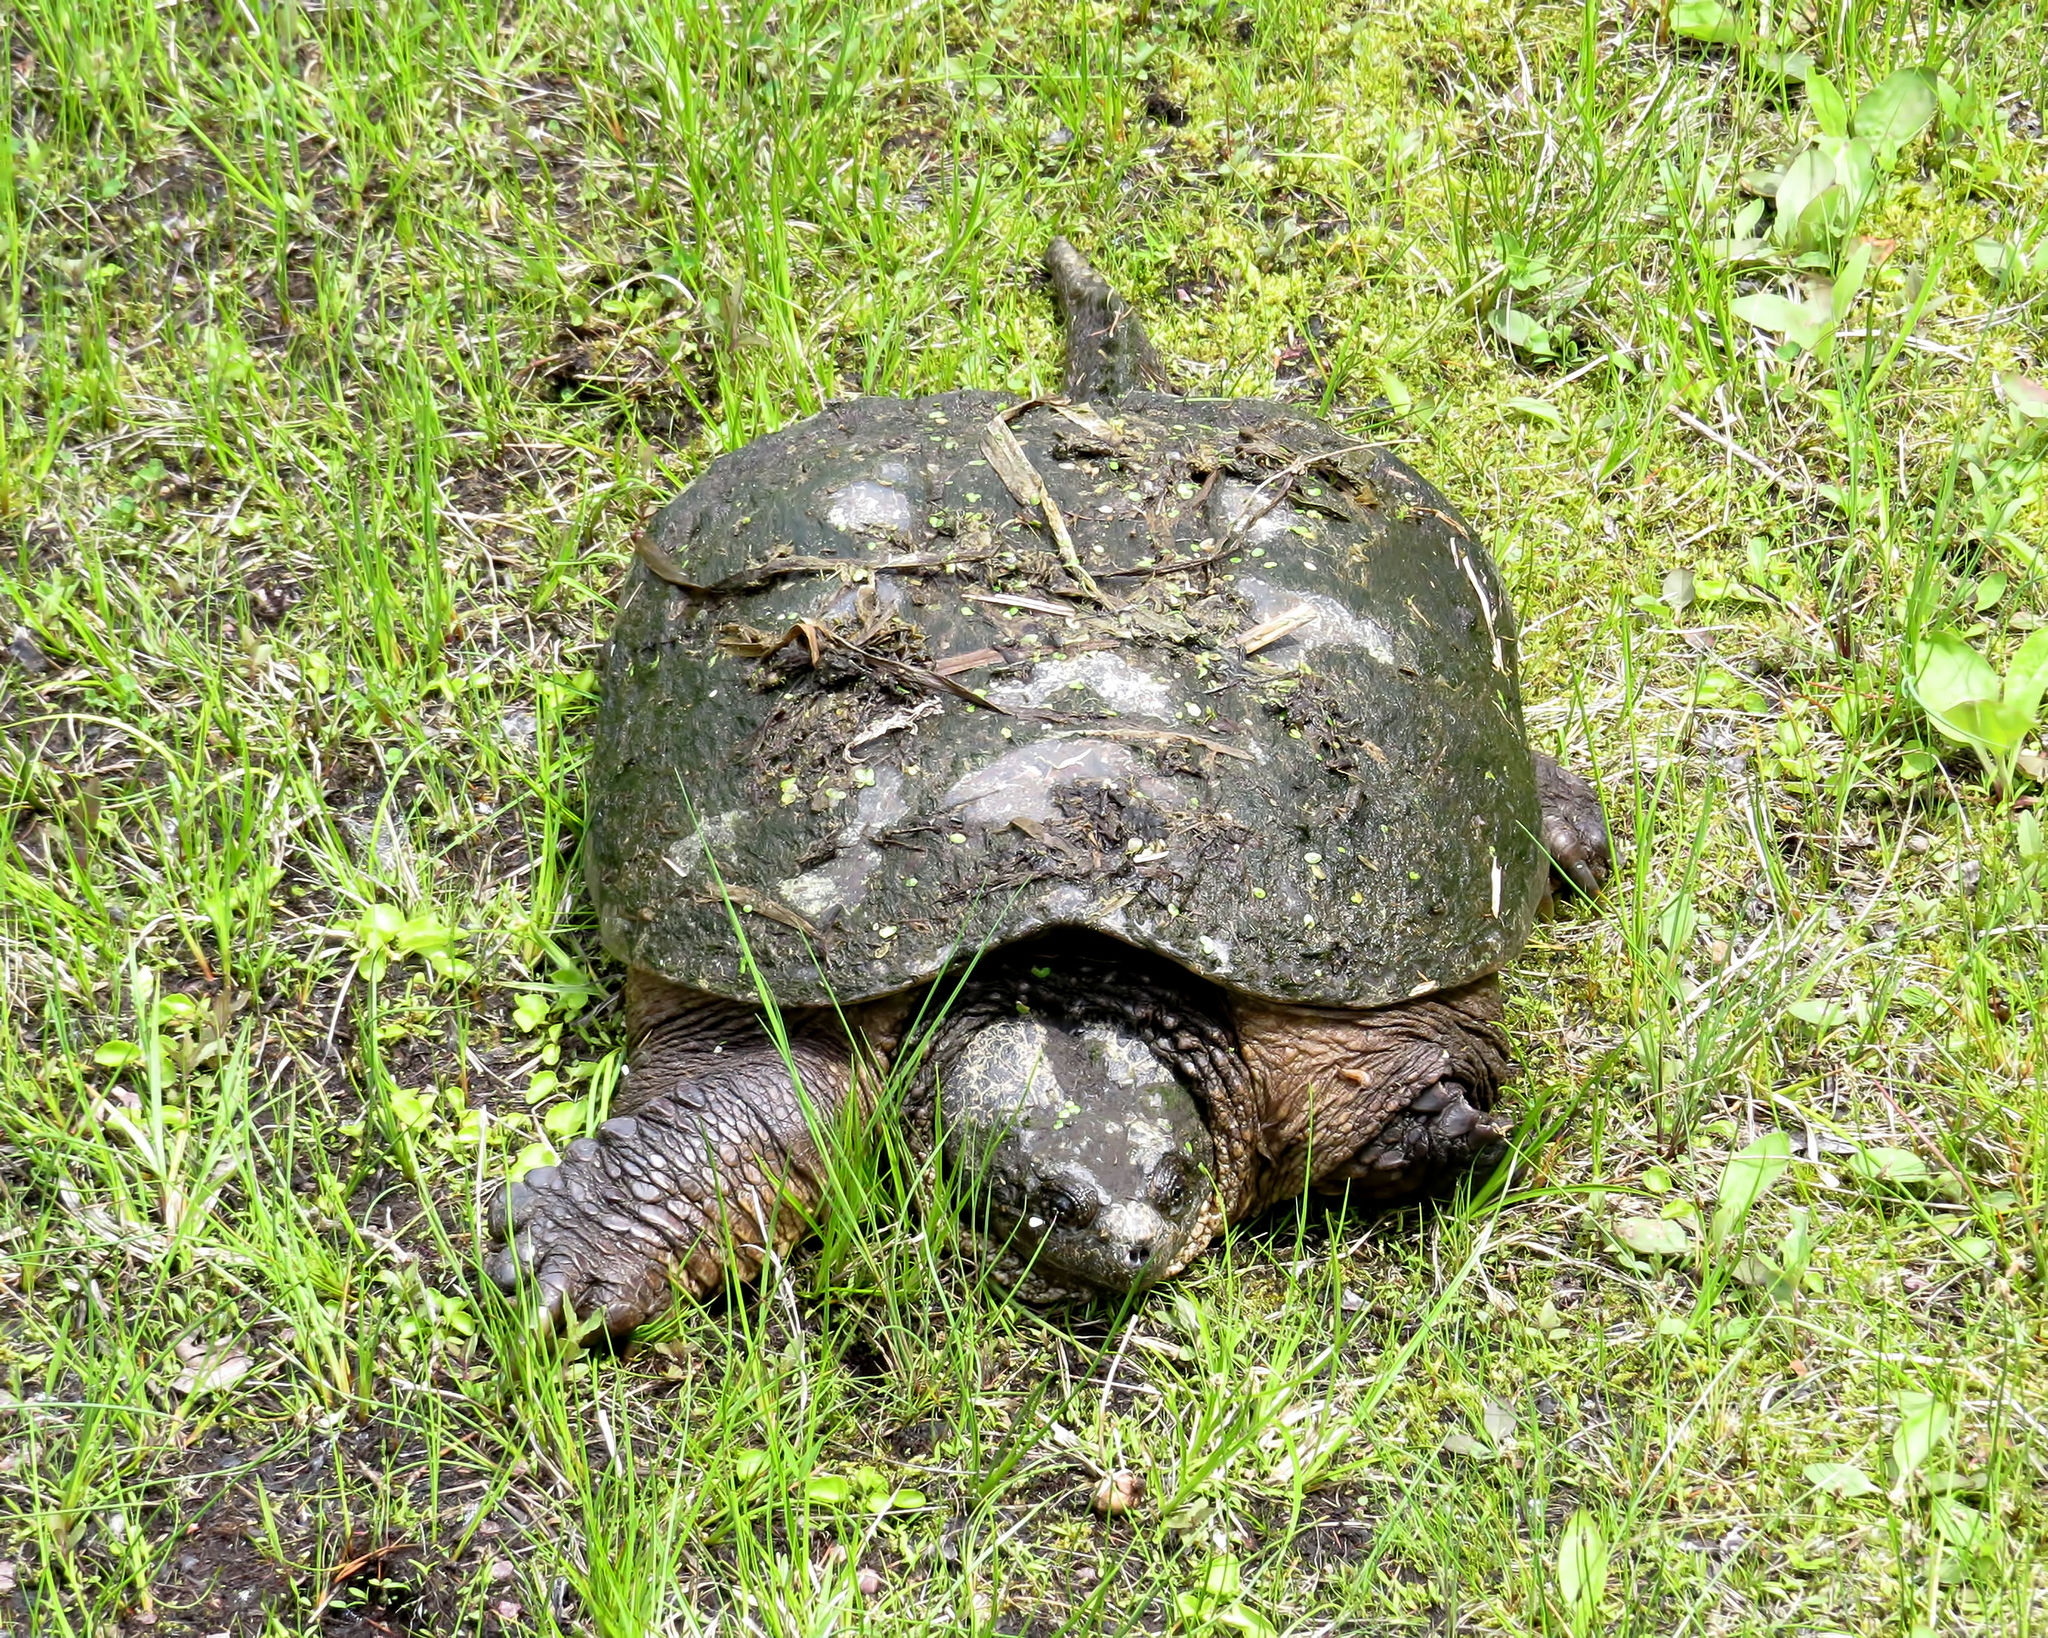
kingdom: Animalia
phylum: Chordata
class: Testudines
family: Chelydridae
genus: Chelydra
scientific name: Chelydra serpentina
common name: Common snapping turtle
